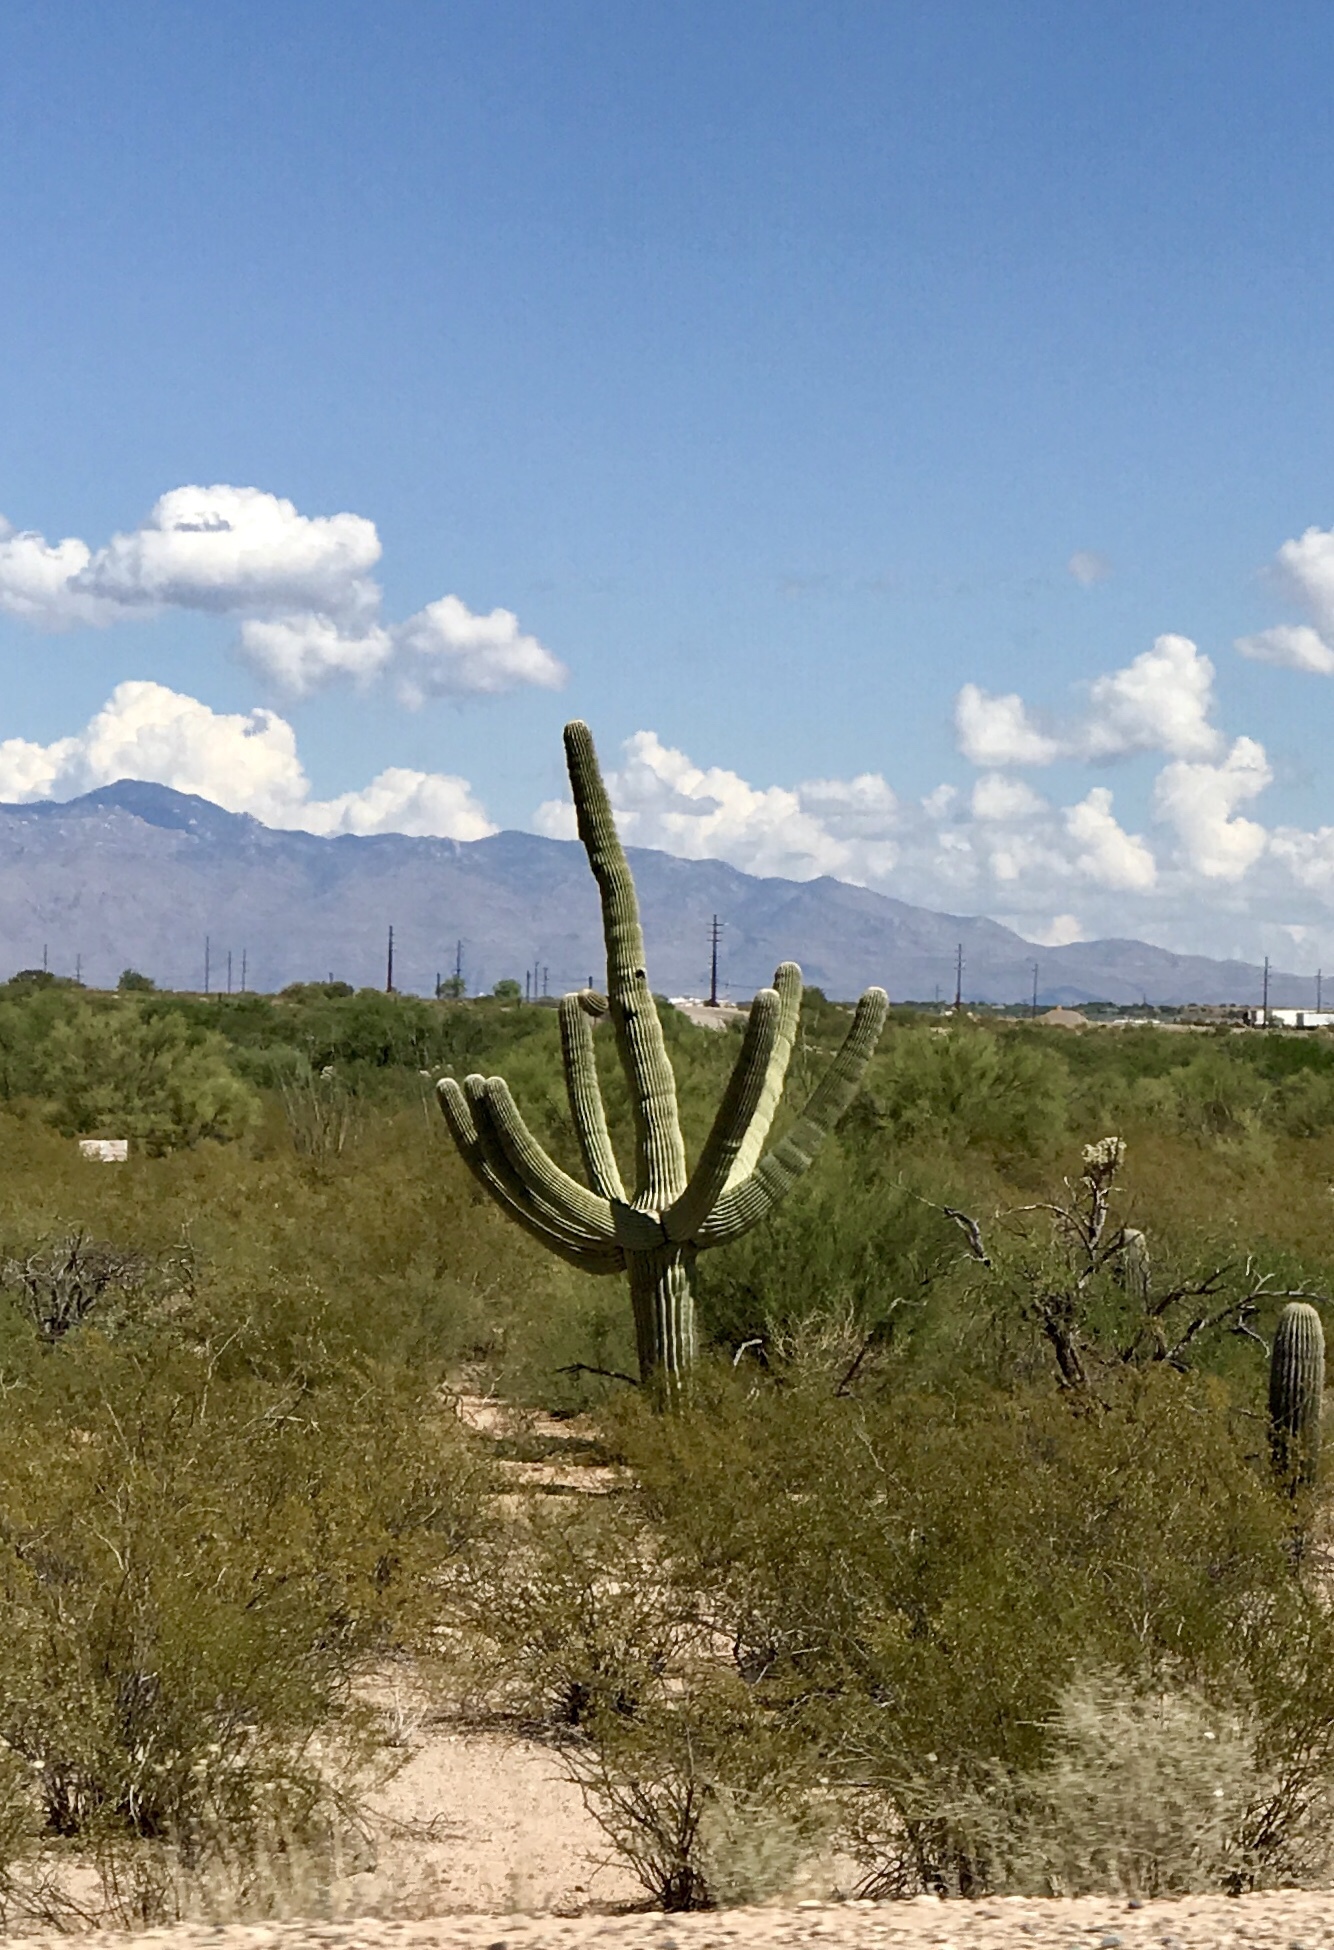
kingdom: Plantae
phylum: Tracheophyta
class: Magnoliopsida
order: Caryophyllales
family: Cactaceae
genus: Carnegiea
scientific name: Carnegiea gigantea
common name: Saguaro
